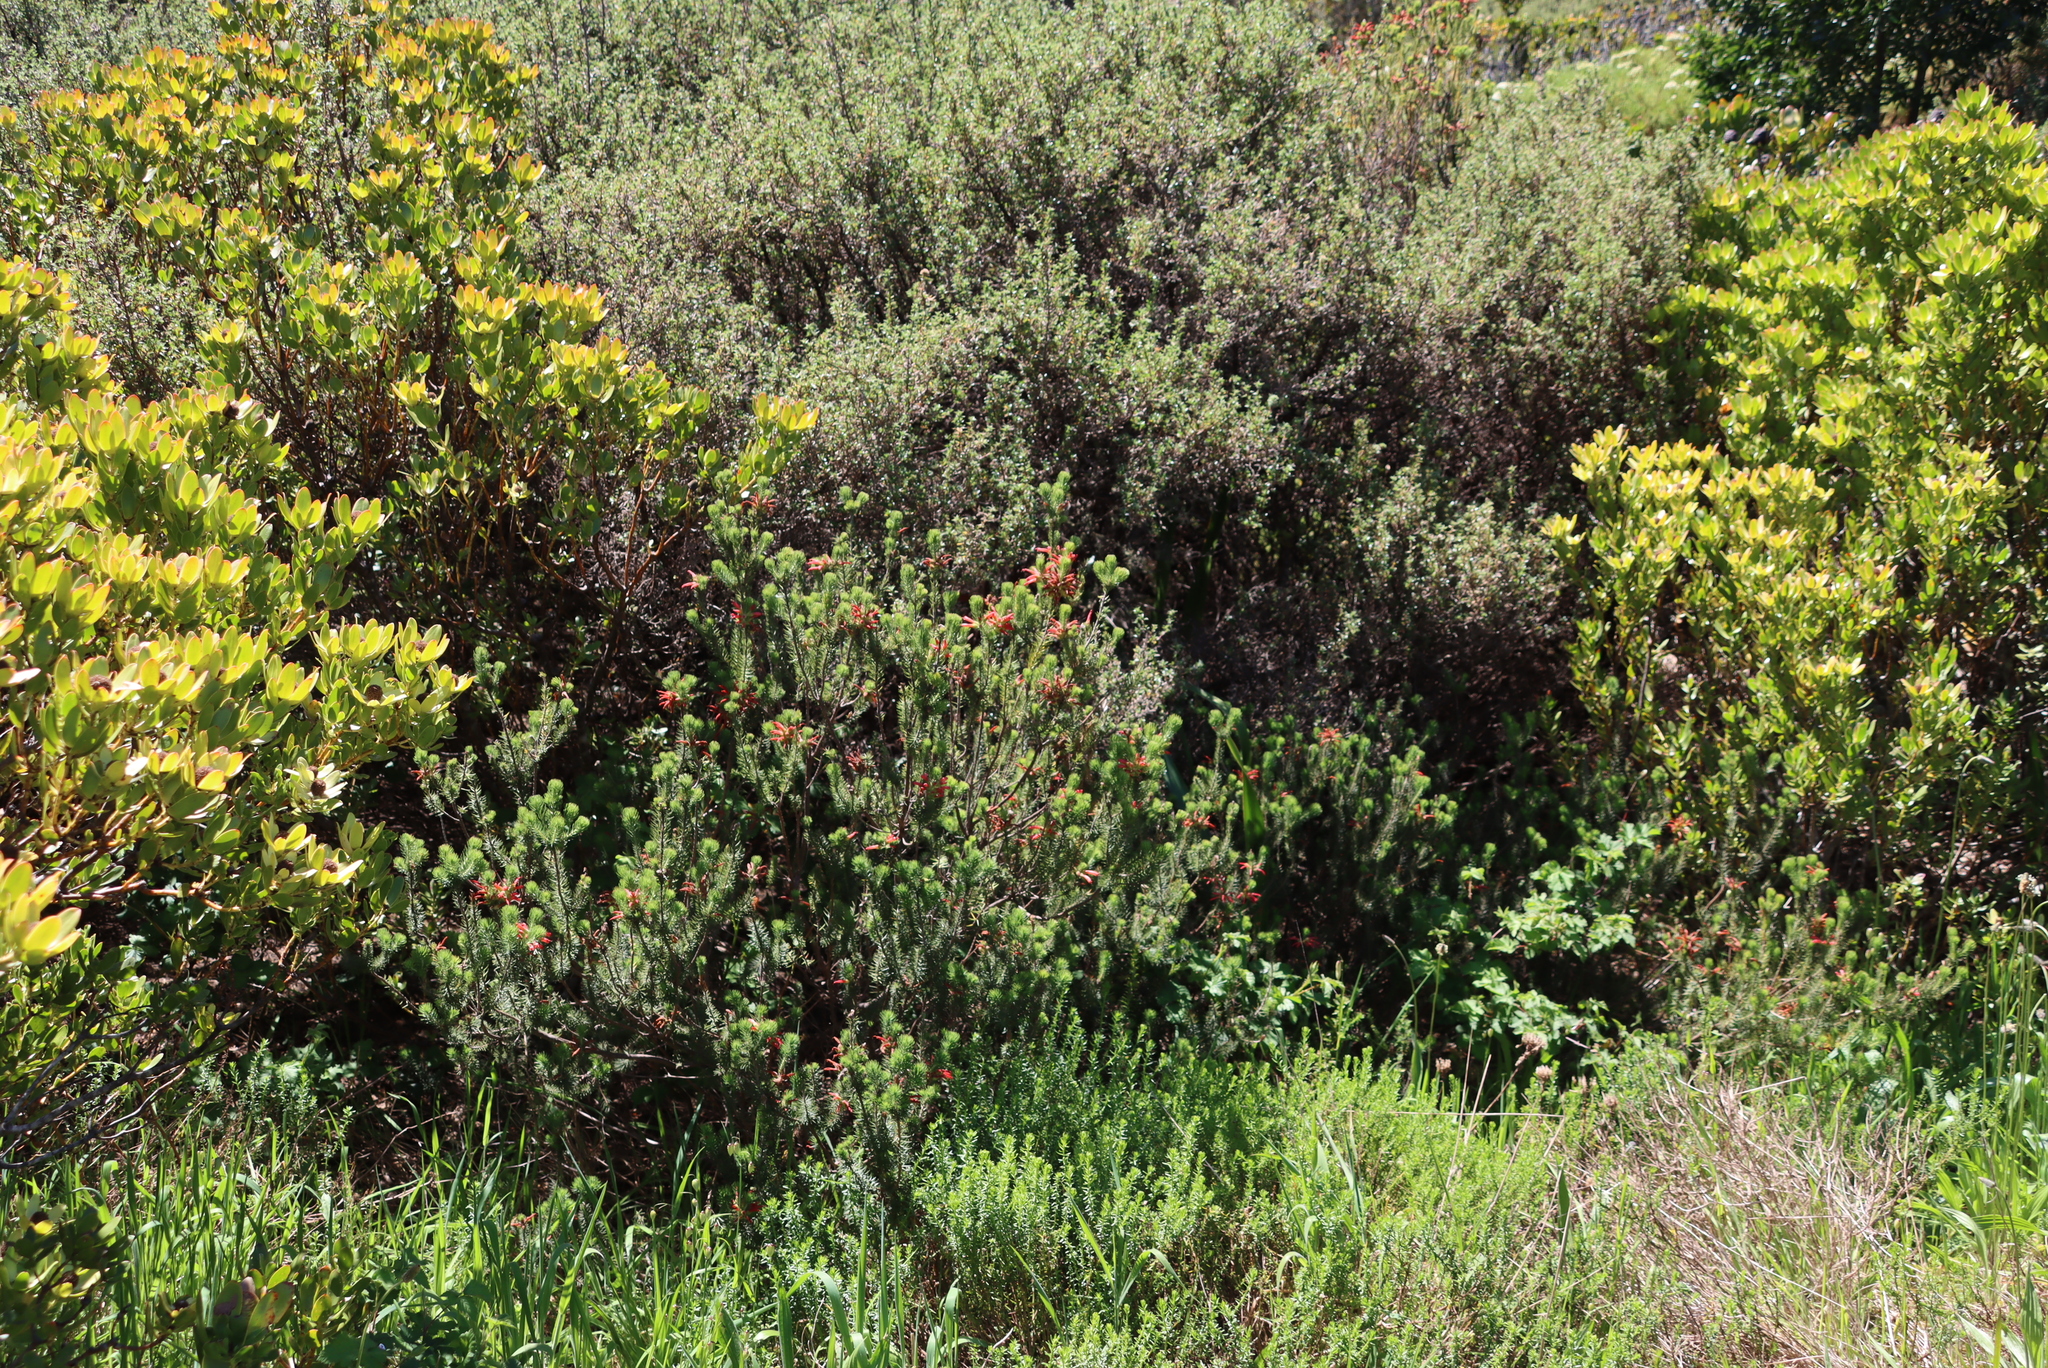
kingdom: Plantae
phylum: Tracheophyta
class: Magnoliopsida
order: Ericales
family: Ericaceae
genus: Erica
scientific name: Erica abietina
